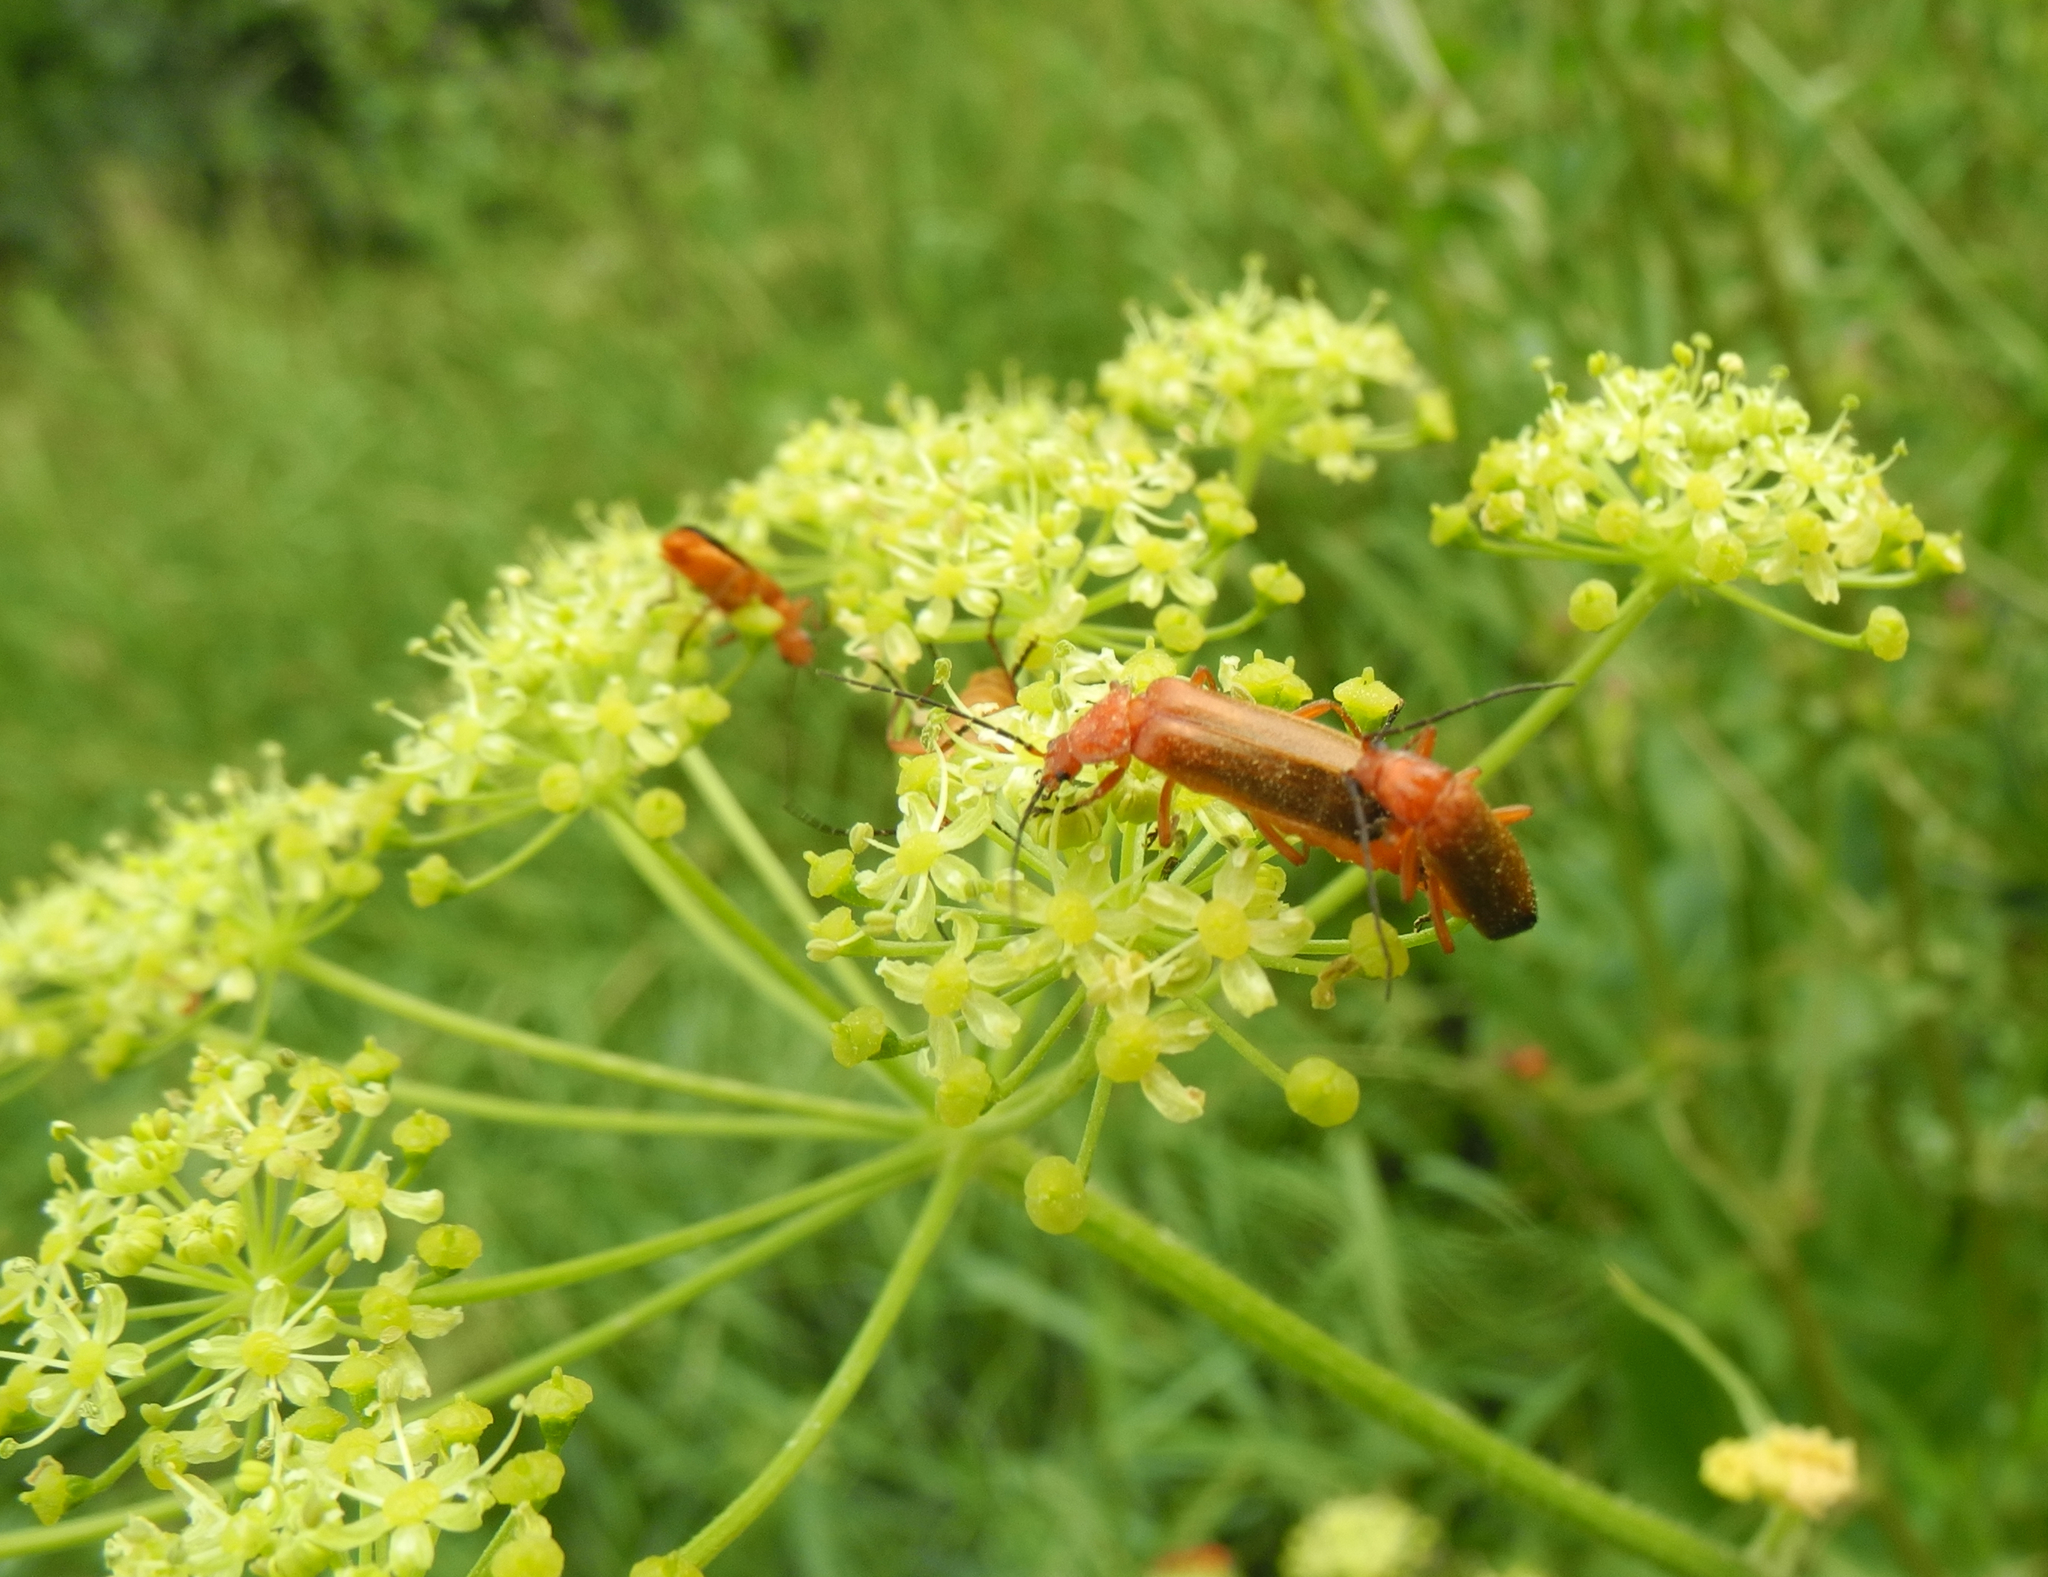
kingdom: Animalia
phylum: Arthropoda
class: Insecta
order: Coleoptera
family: Cantharidae
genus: Rhagonycha
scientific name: Rhagonycha fulva
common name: Common red soldier beetle
